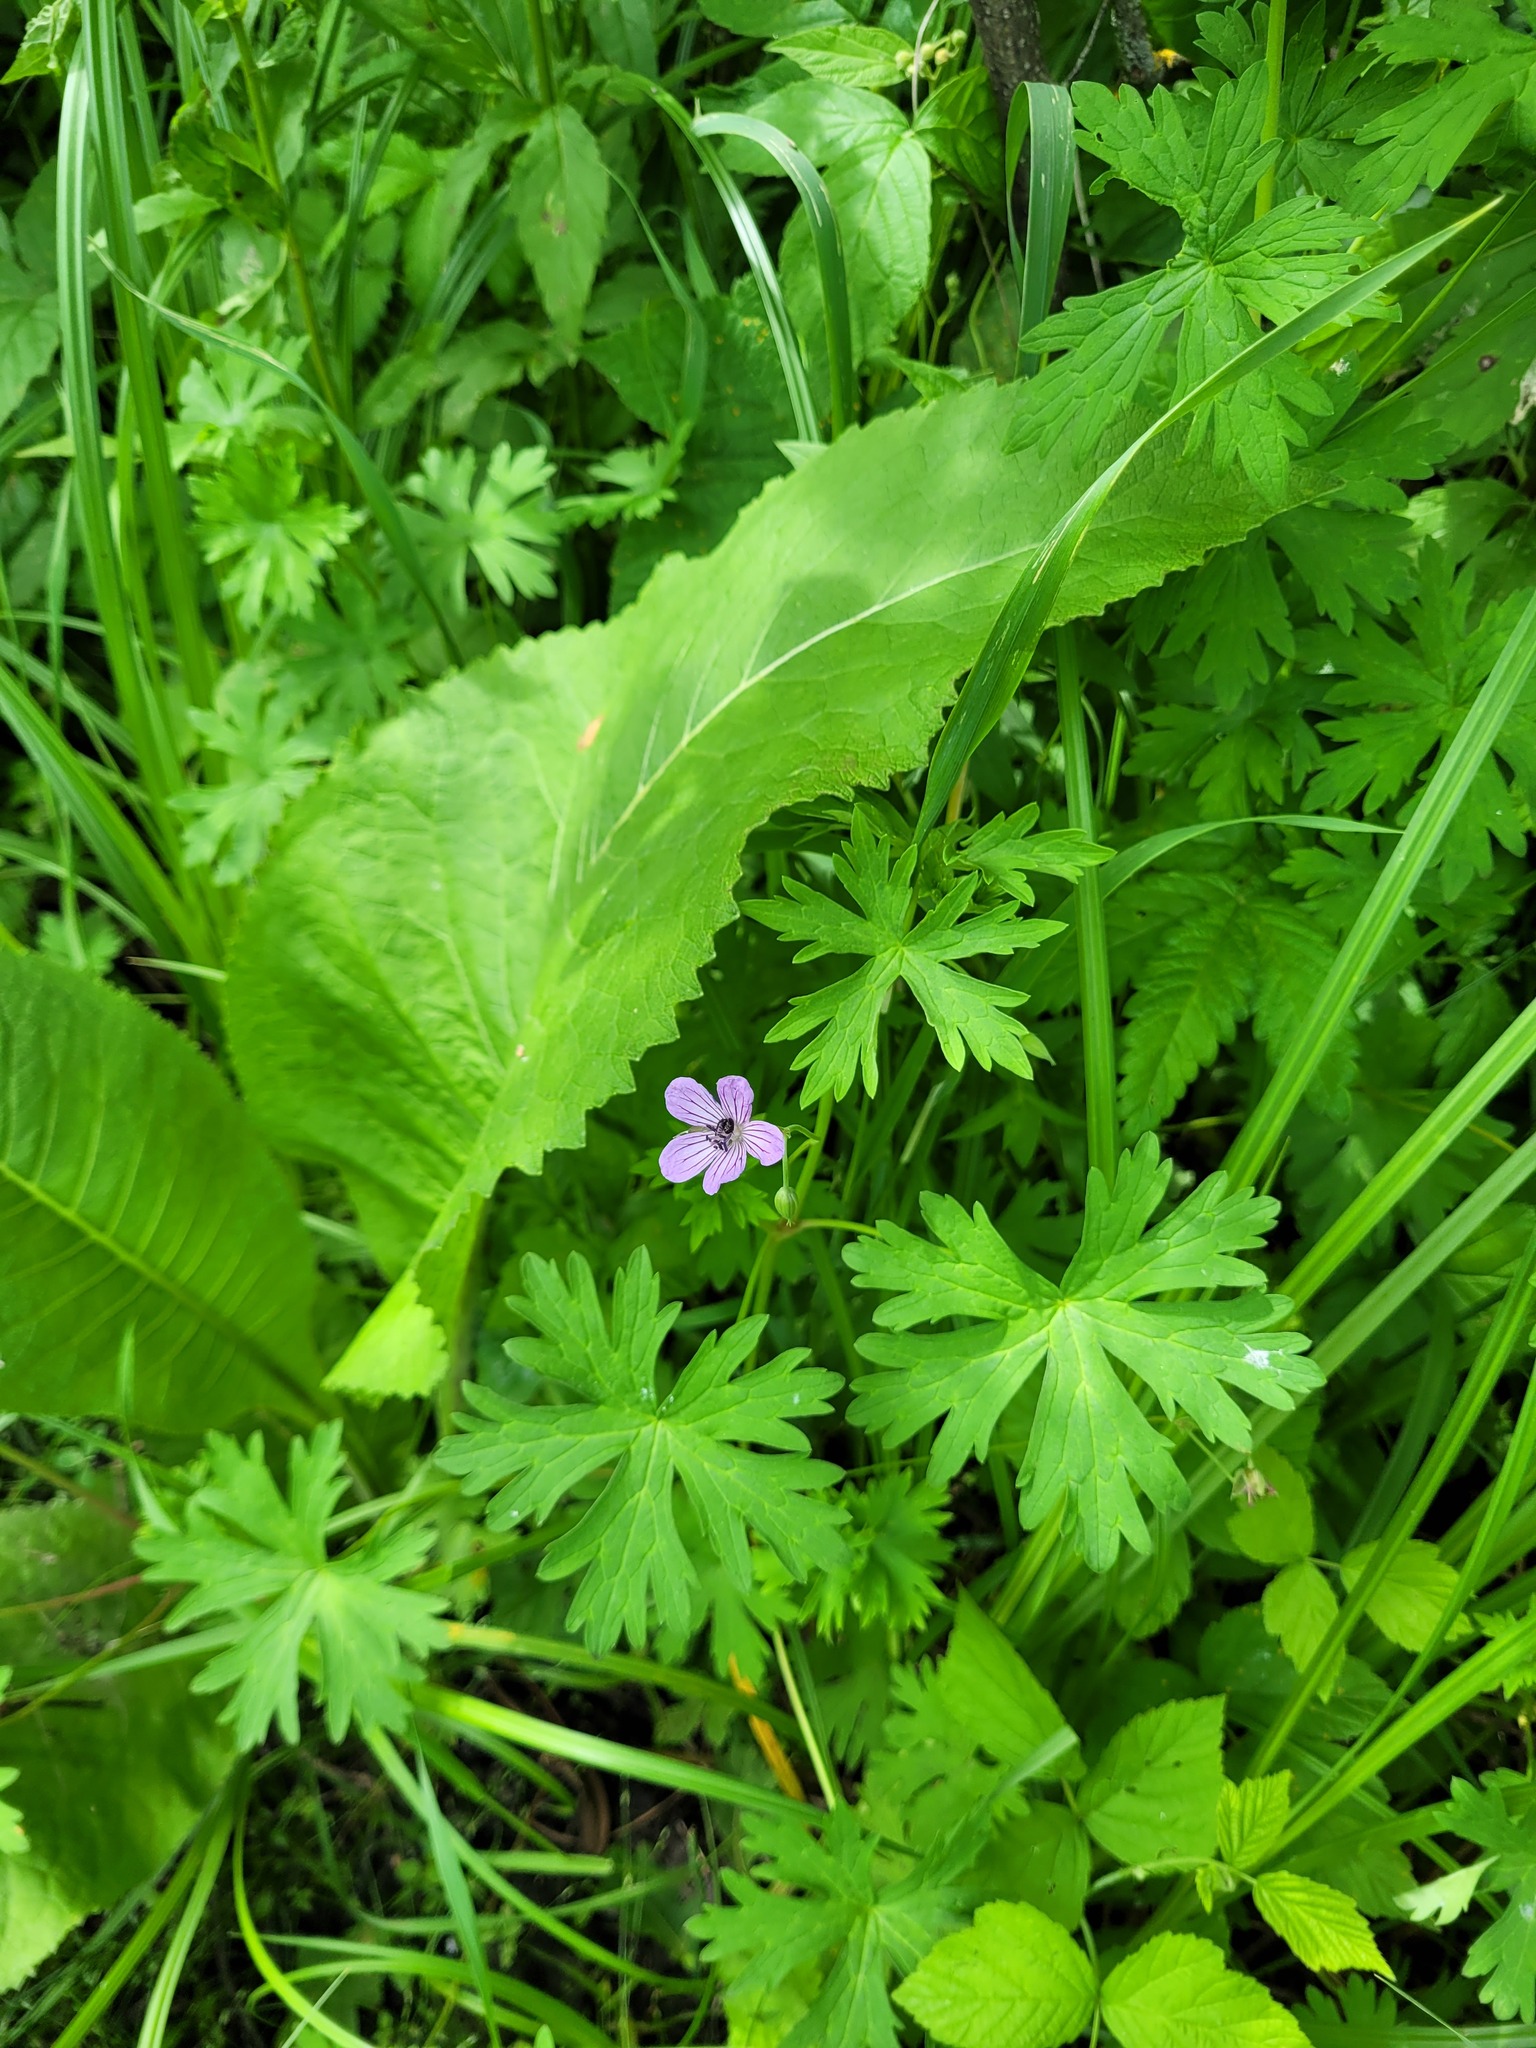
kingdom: Plantae
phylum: Tracheophyta
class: Magnoliopsida
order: Geraniales
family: Geraniaceae
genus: Geranium
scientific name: Geranium collinum
